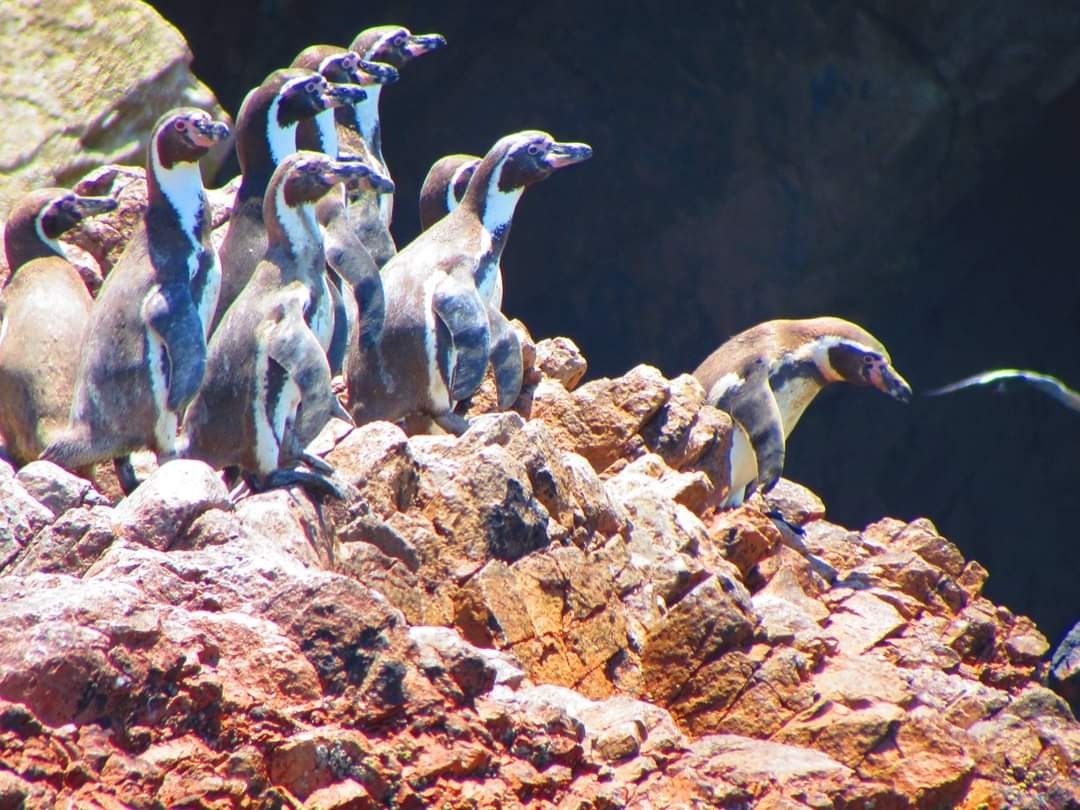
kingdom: Animalia
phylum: Chordata
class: Aves
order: Sphenisciformes
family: Spheniscidae
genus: Spheniscus
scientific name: Spheniscus humboldti
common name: Humboldt penguin
